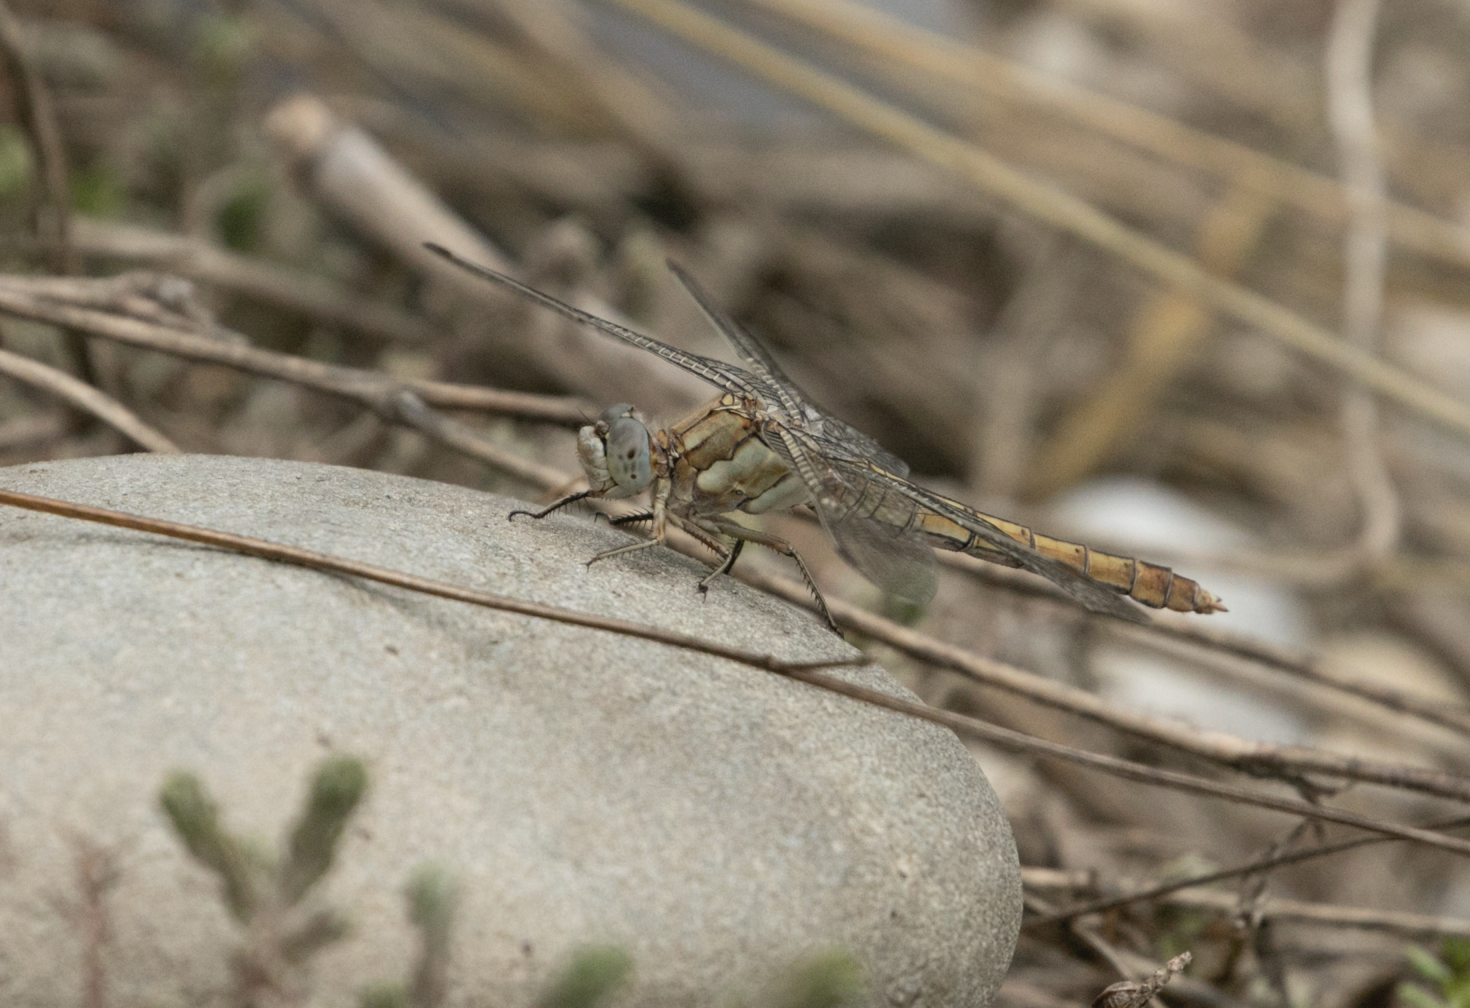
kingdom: Animalia
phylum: Arthropoda
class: Insecta
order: Odonata
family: Libellulidae
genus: Orthetrum
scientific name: Orthetrum brunneum
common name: Southern skimmer
